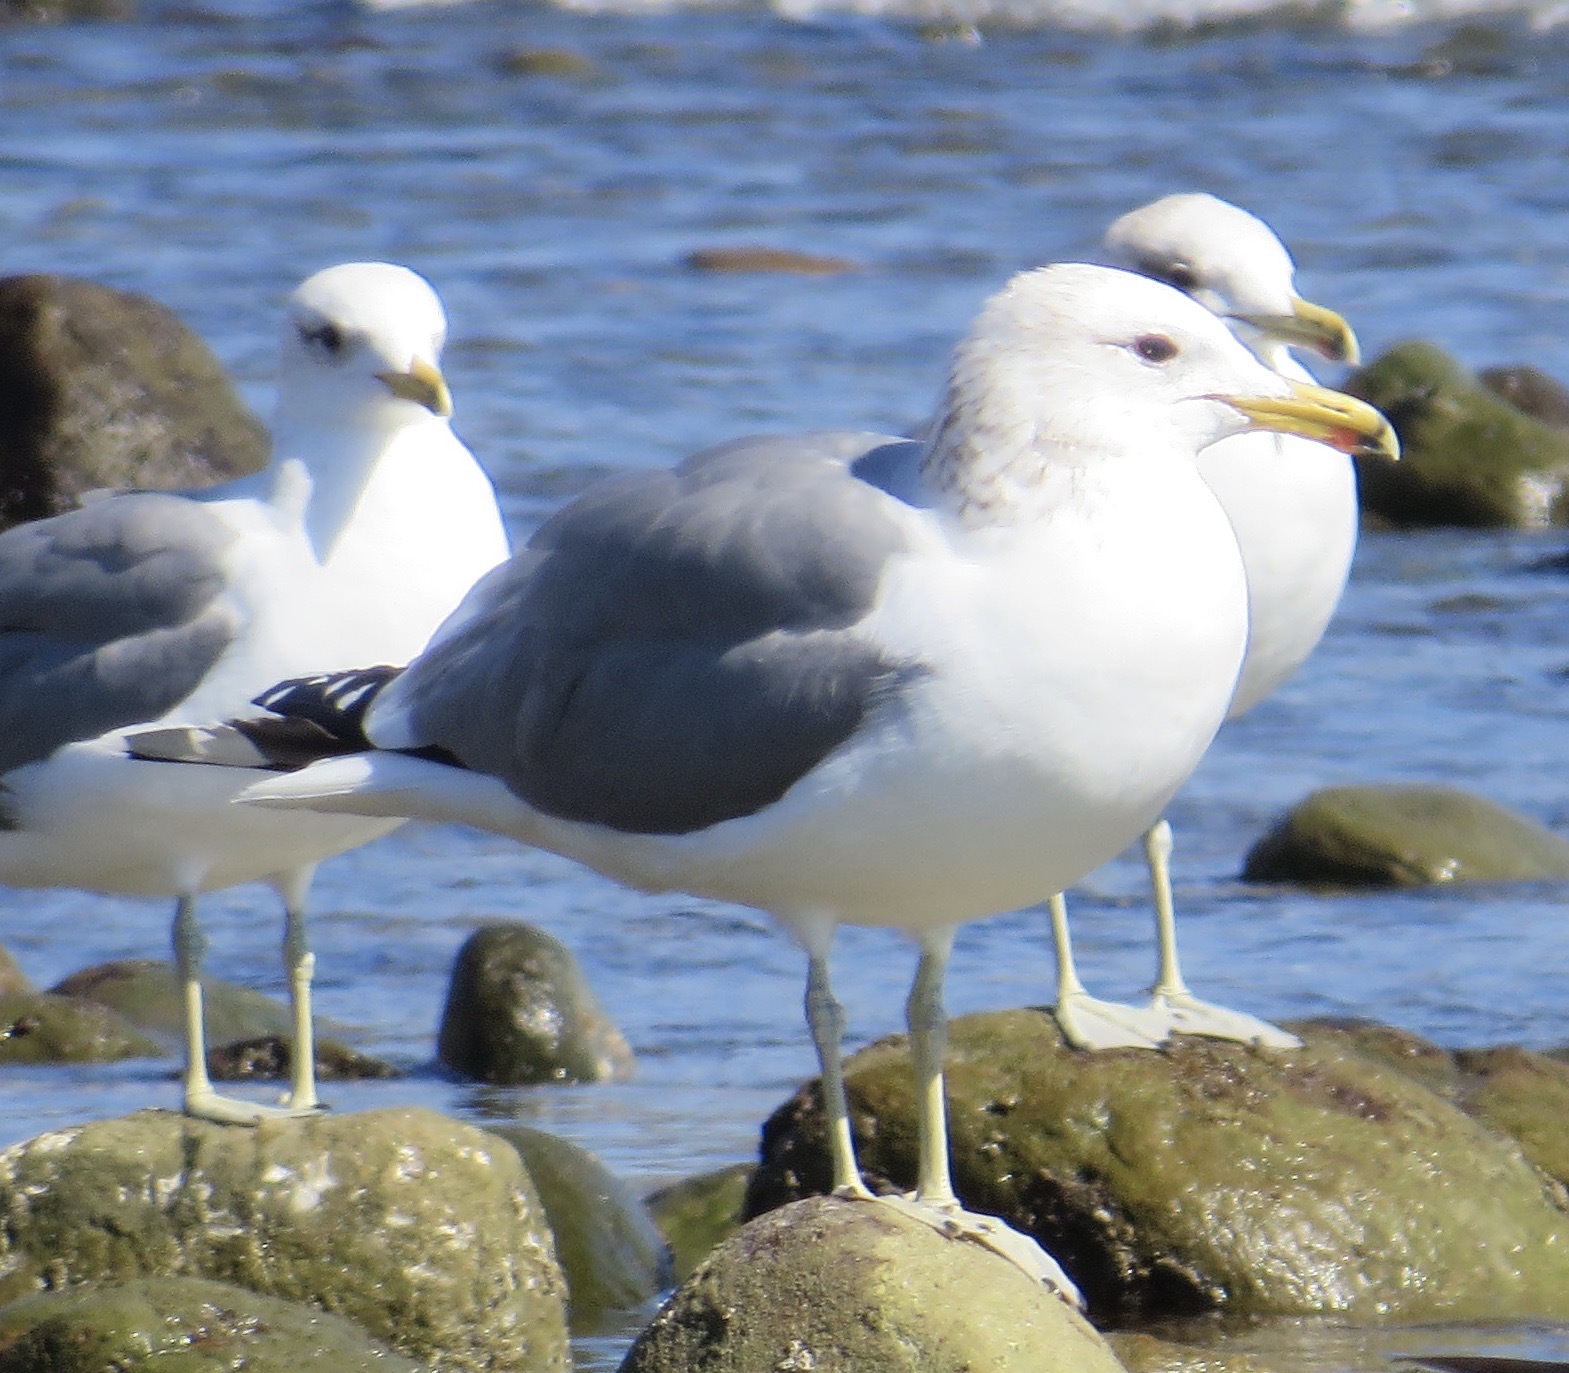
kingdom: Animalia
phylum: Chordata
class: Aves
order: Charadriiformes
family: Laridae
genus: Larus
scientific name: Larus californicus
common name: California gull
